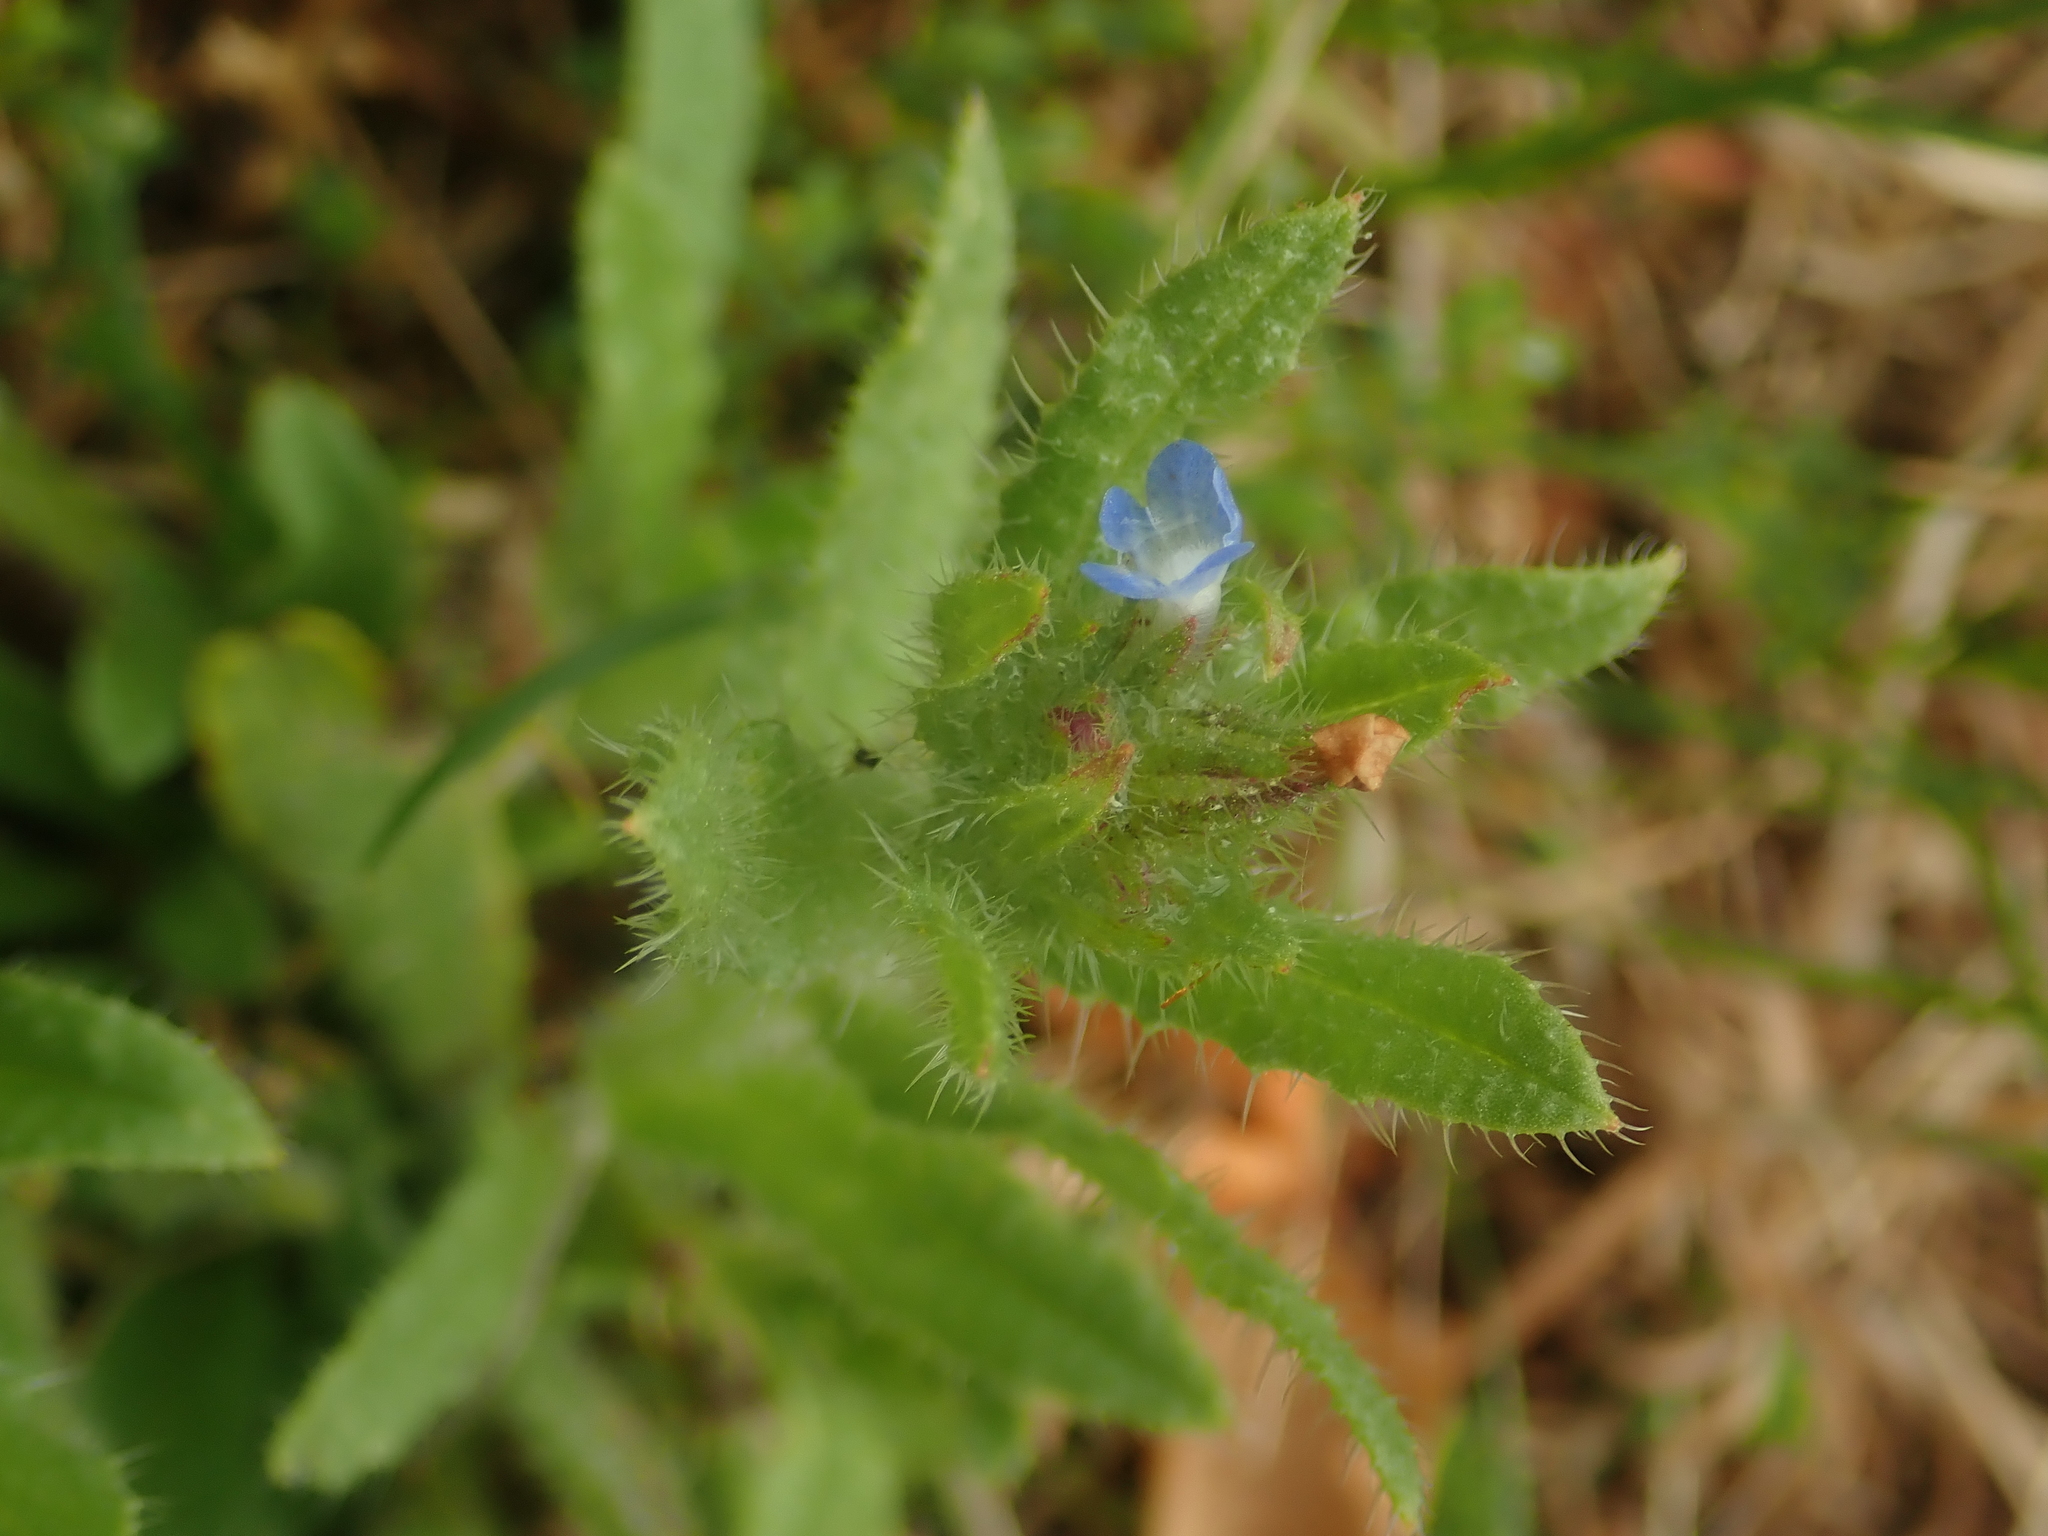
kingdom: Plantae
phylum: Tracheophyta
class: Magnoliopsida
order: Boraginales
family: Boraginaceae
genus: Lycopsis
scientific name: Lycopsis arvensis
